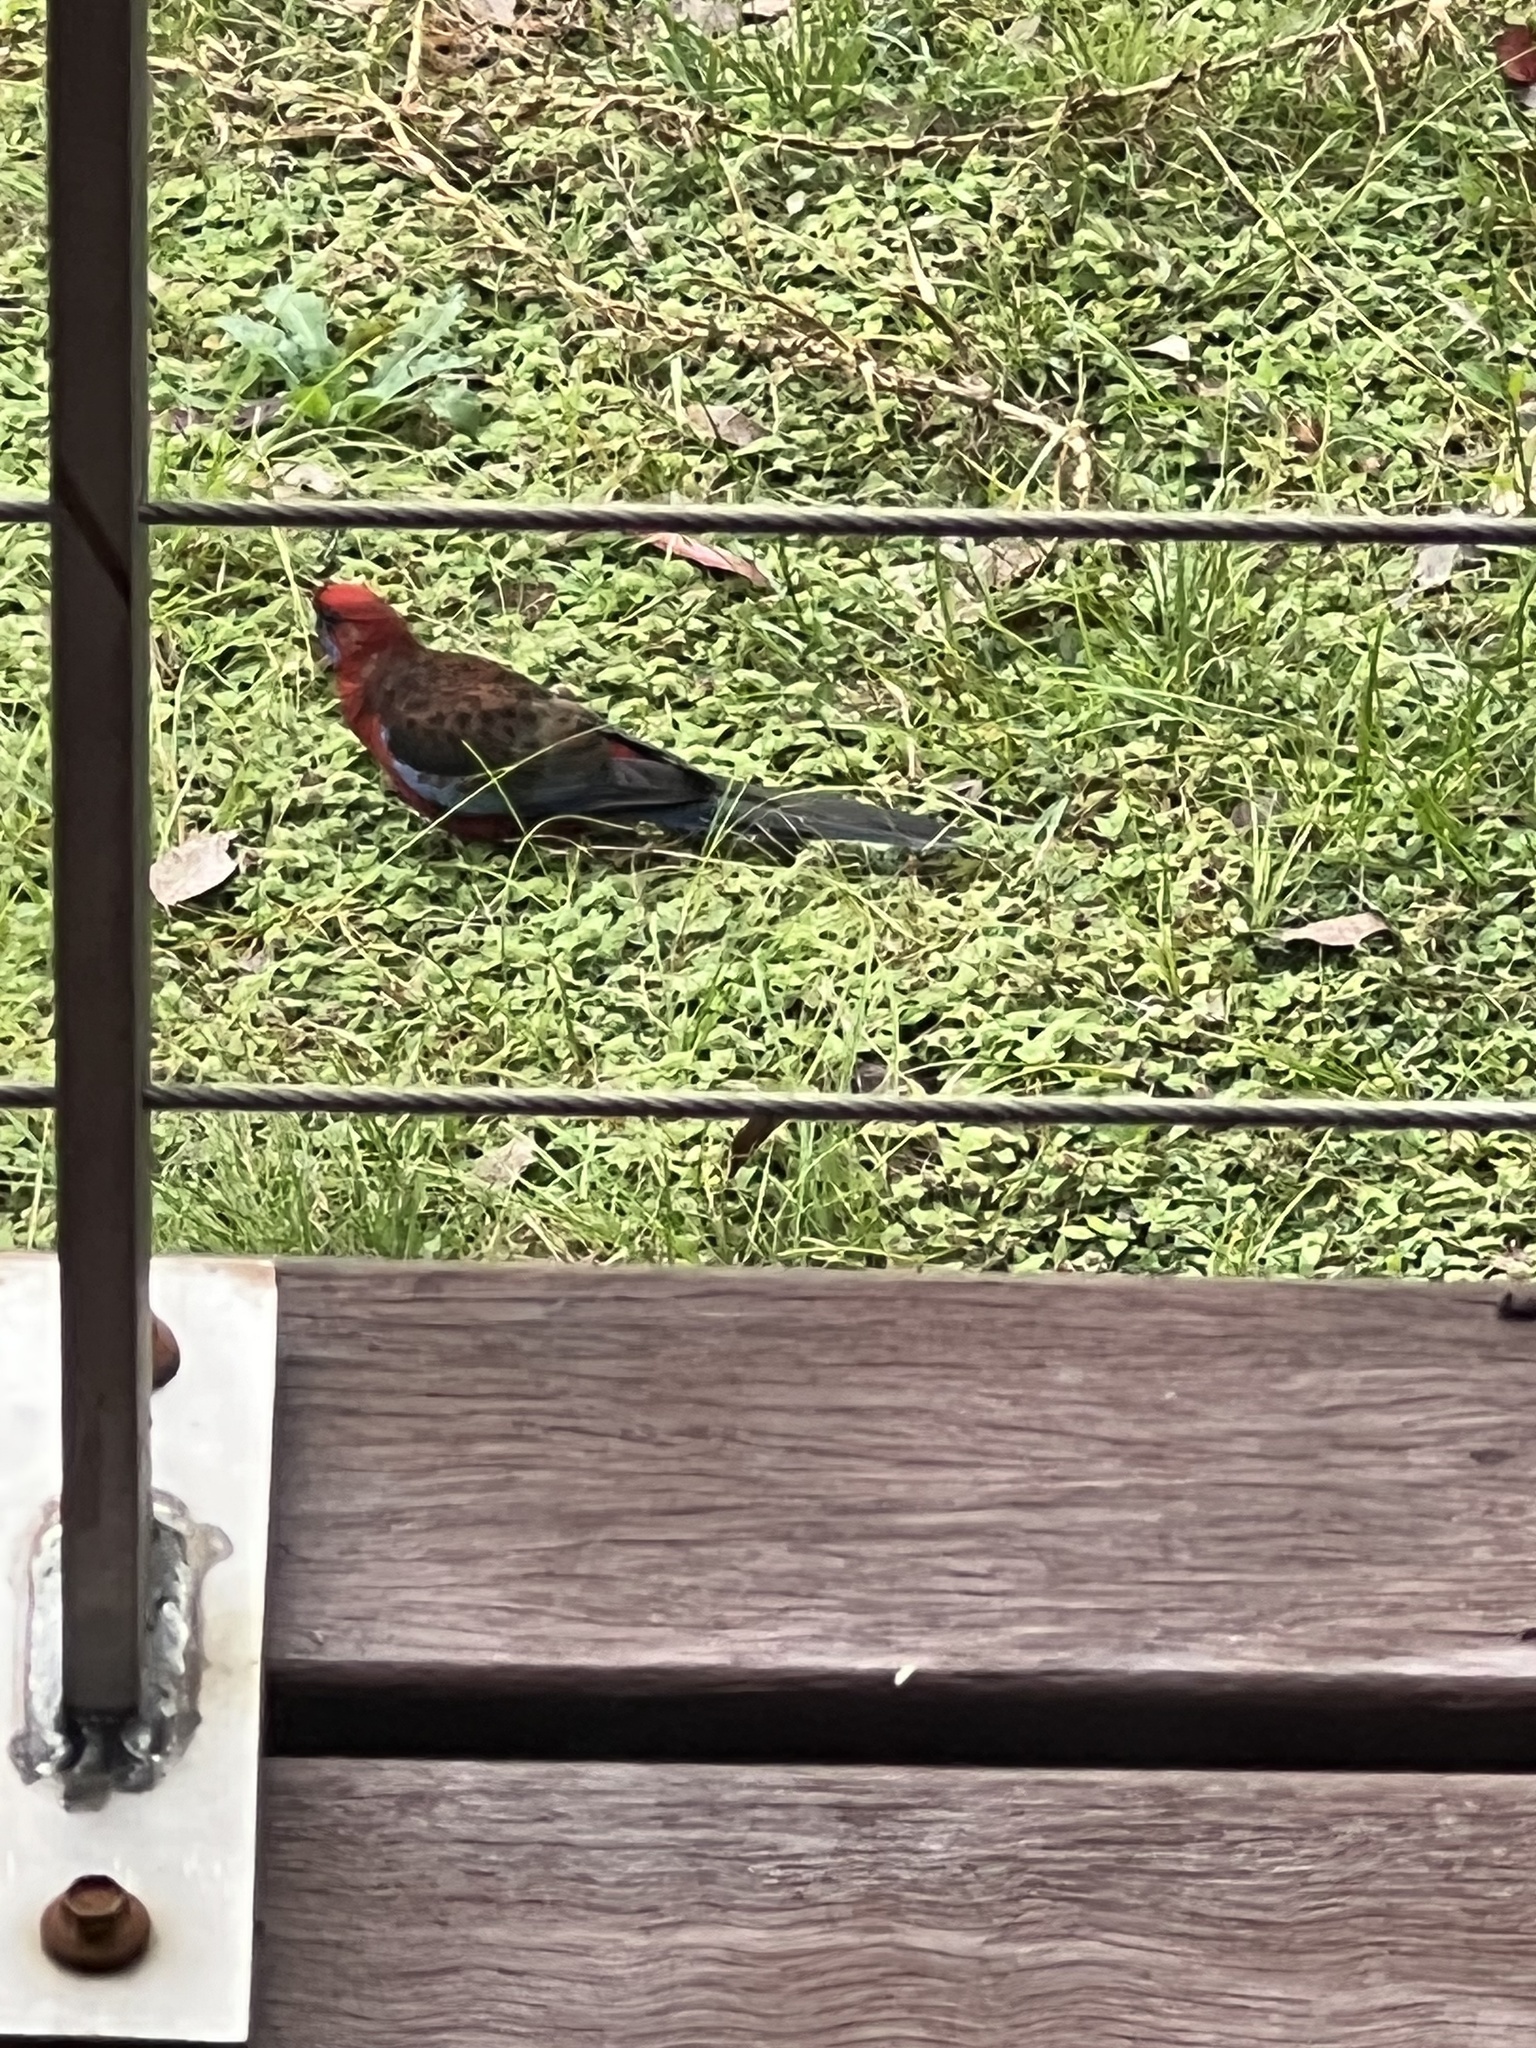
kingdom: Animalia
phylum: Chordata
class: Aves
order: Psittaciformes
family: Psittacidae
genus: Platycercus
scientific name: Platycercus elegans
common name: Crimson rosella
